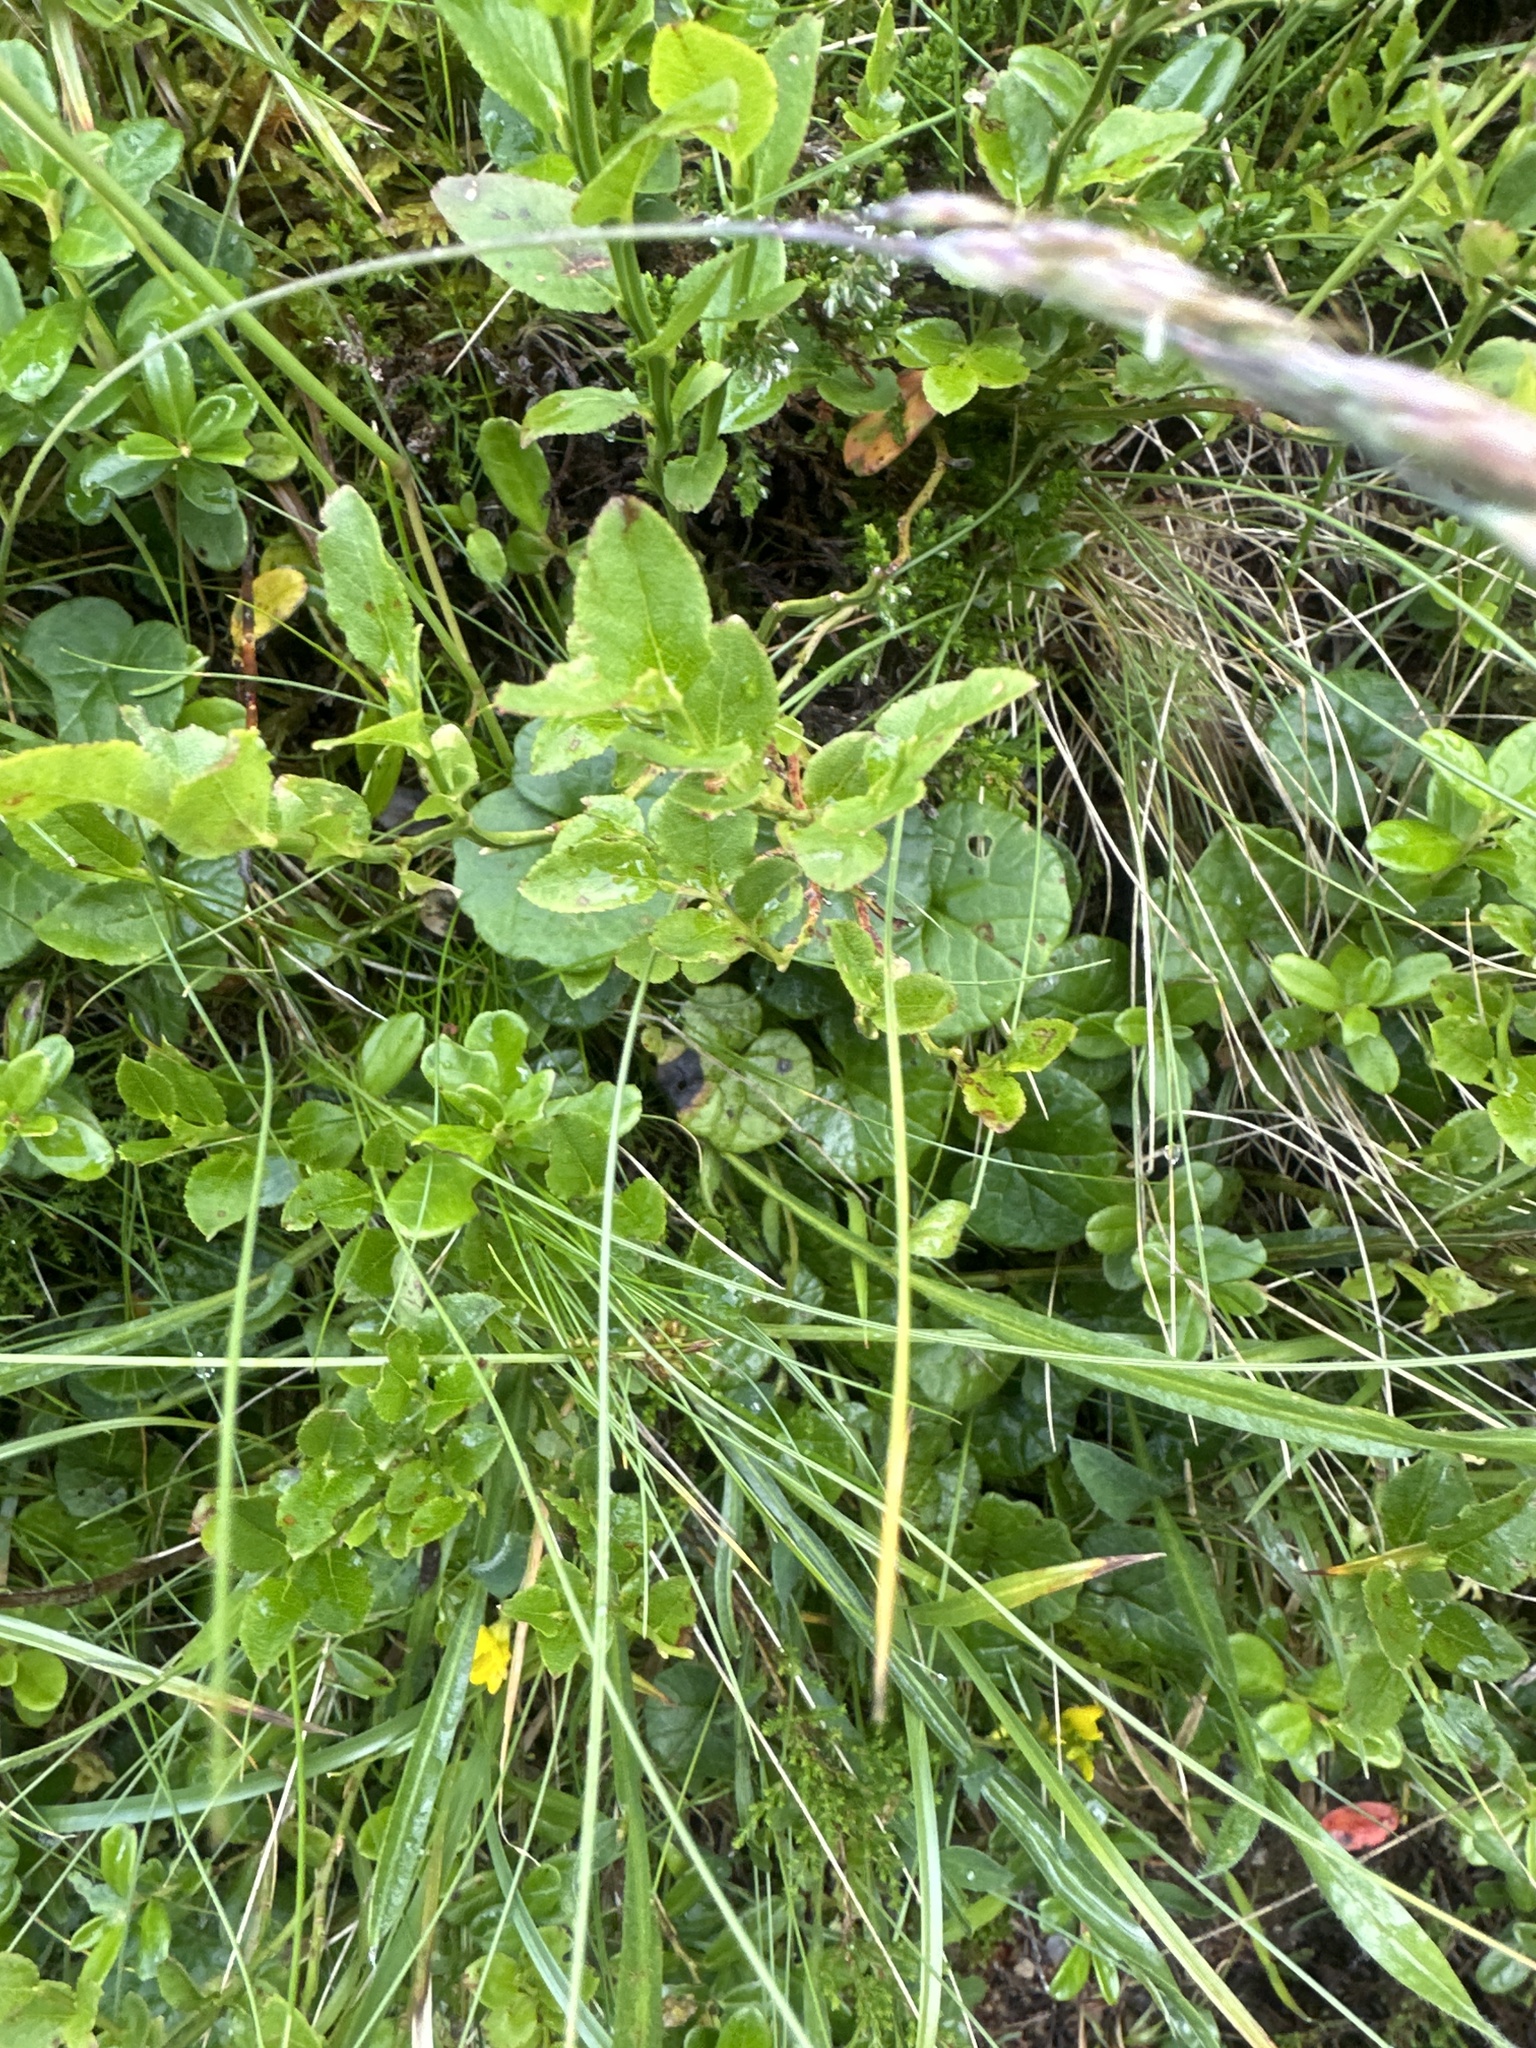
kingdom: Plantae
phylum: Tracheophyta
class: Magnoliopsida
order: Fabales
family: Fabaceae
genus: Genista
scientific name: Genista sagittalis
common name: Winged greenweed
